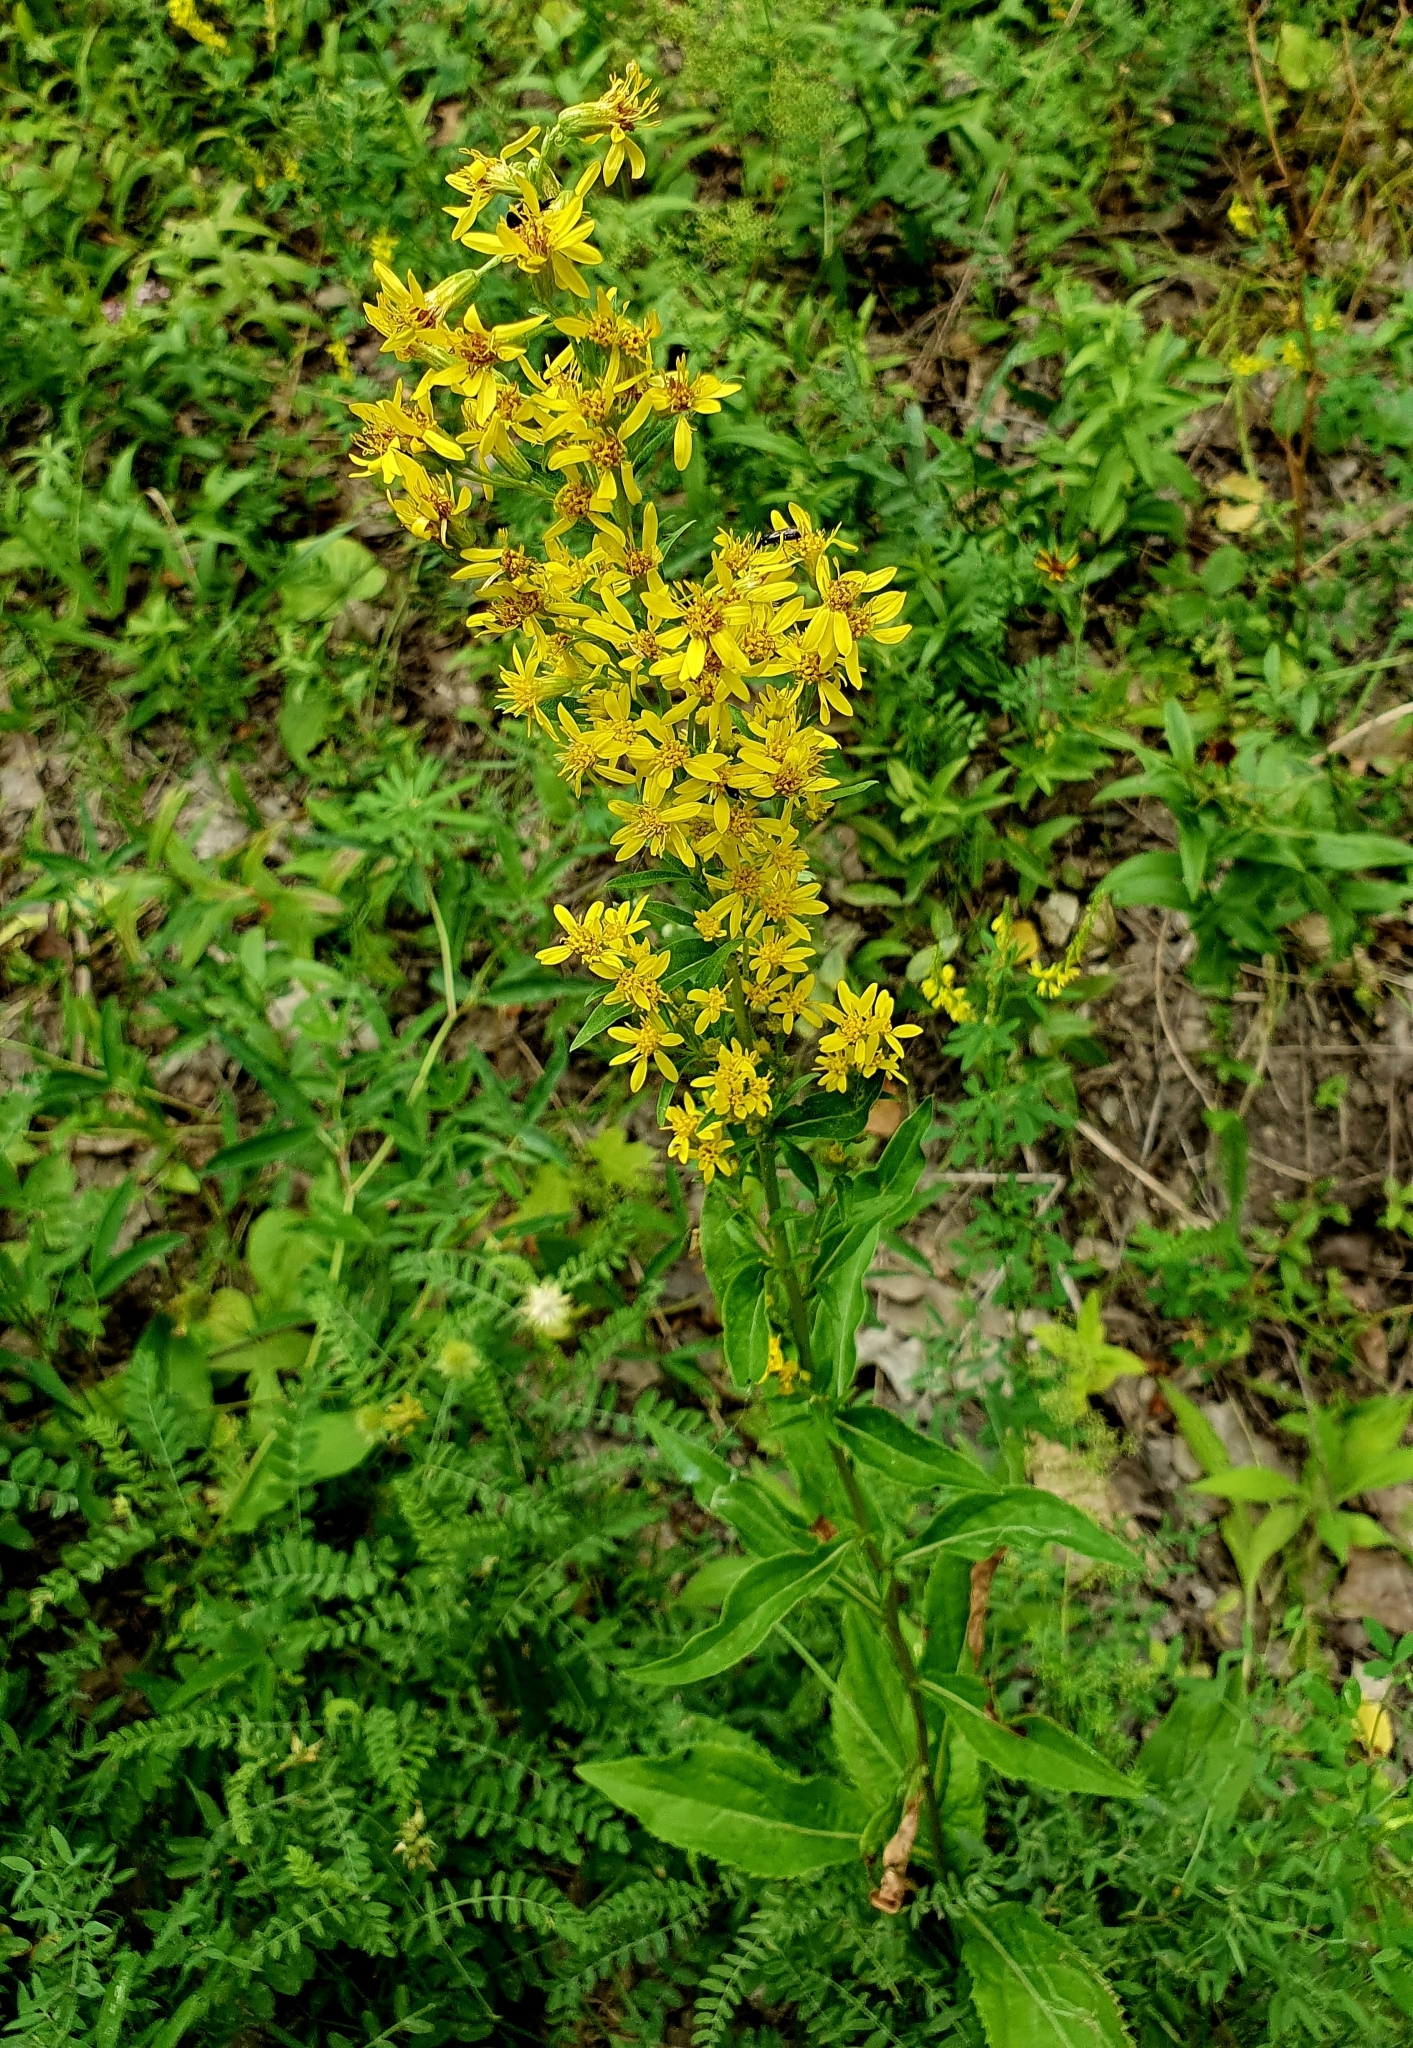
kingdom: Plantae
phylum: Tracheophyta
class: Magnoliopsida
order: Asterales
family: Asteraceae
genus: Solidago
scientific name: Solidago virgaurea
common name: Goldenrod
